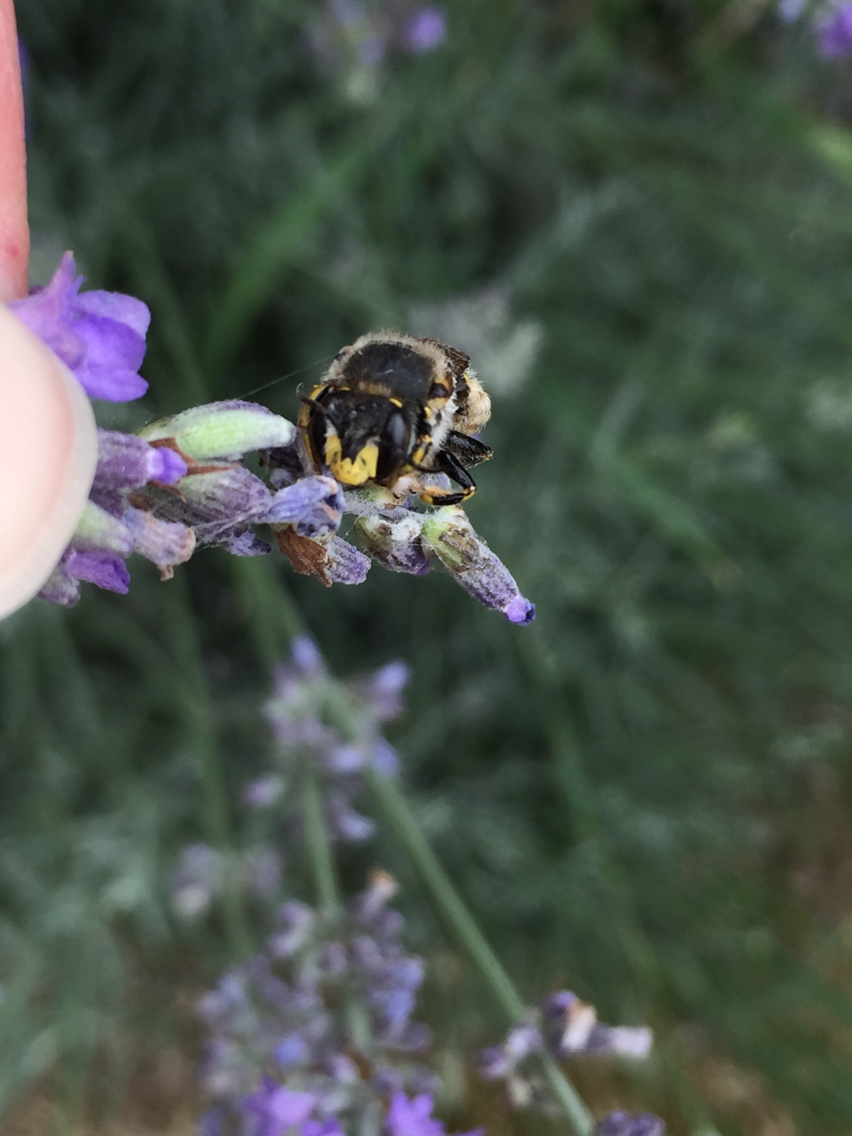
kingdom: Animalia
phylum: Arthropoda
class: Insecta
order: Hymenoptera
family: Megachilidae
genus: Anthidium
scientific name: Anthidium manicatum
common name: Wool carder bee
